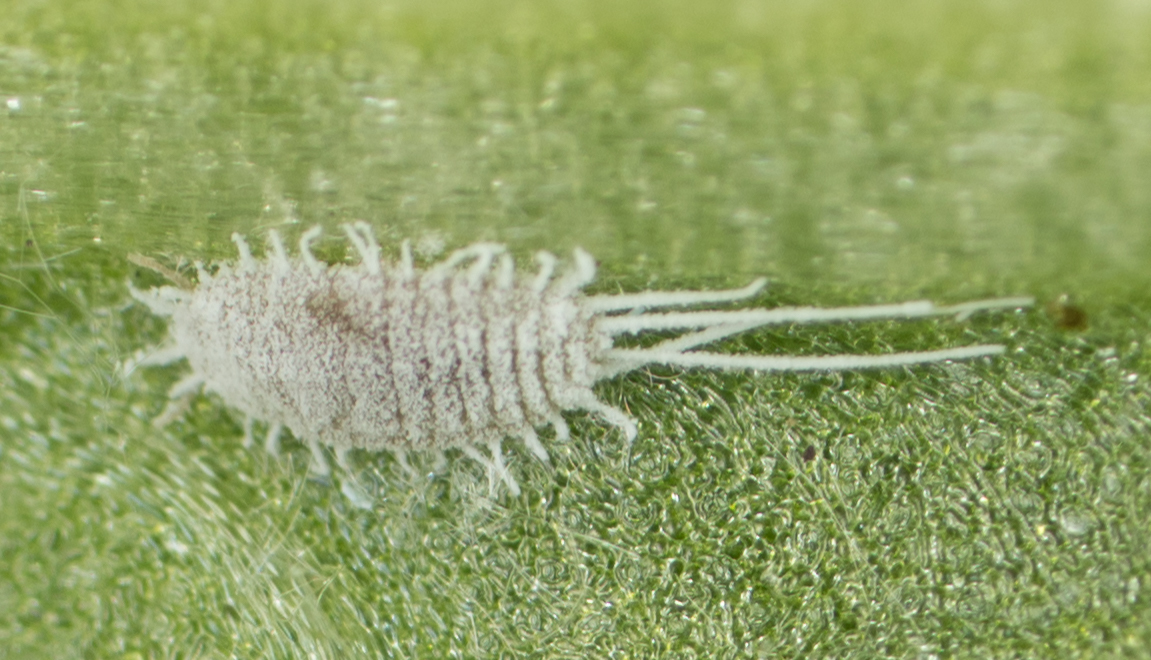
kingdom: Animalia
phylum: Arthropoda
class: Insecta
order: Hemiptera
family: Pseudococcidae
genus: Pseudococcus
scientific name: Pseudococcus longispinus
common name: Long-tailed mealybug
